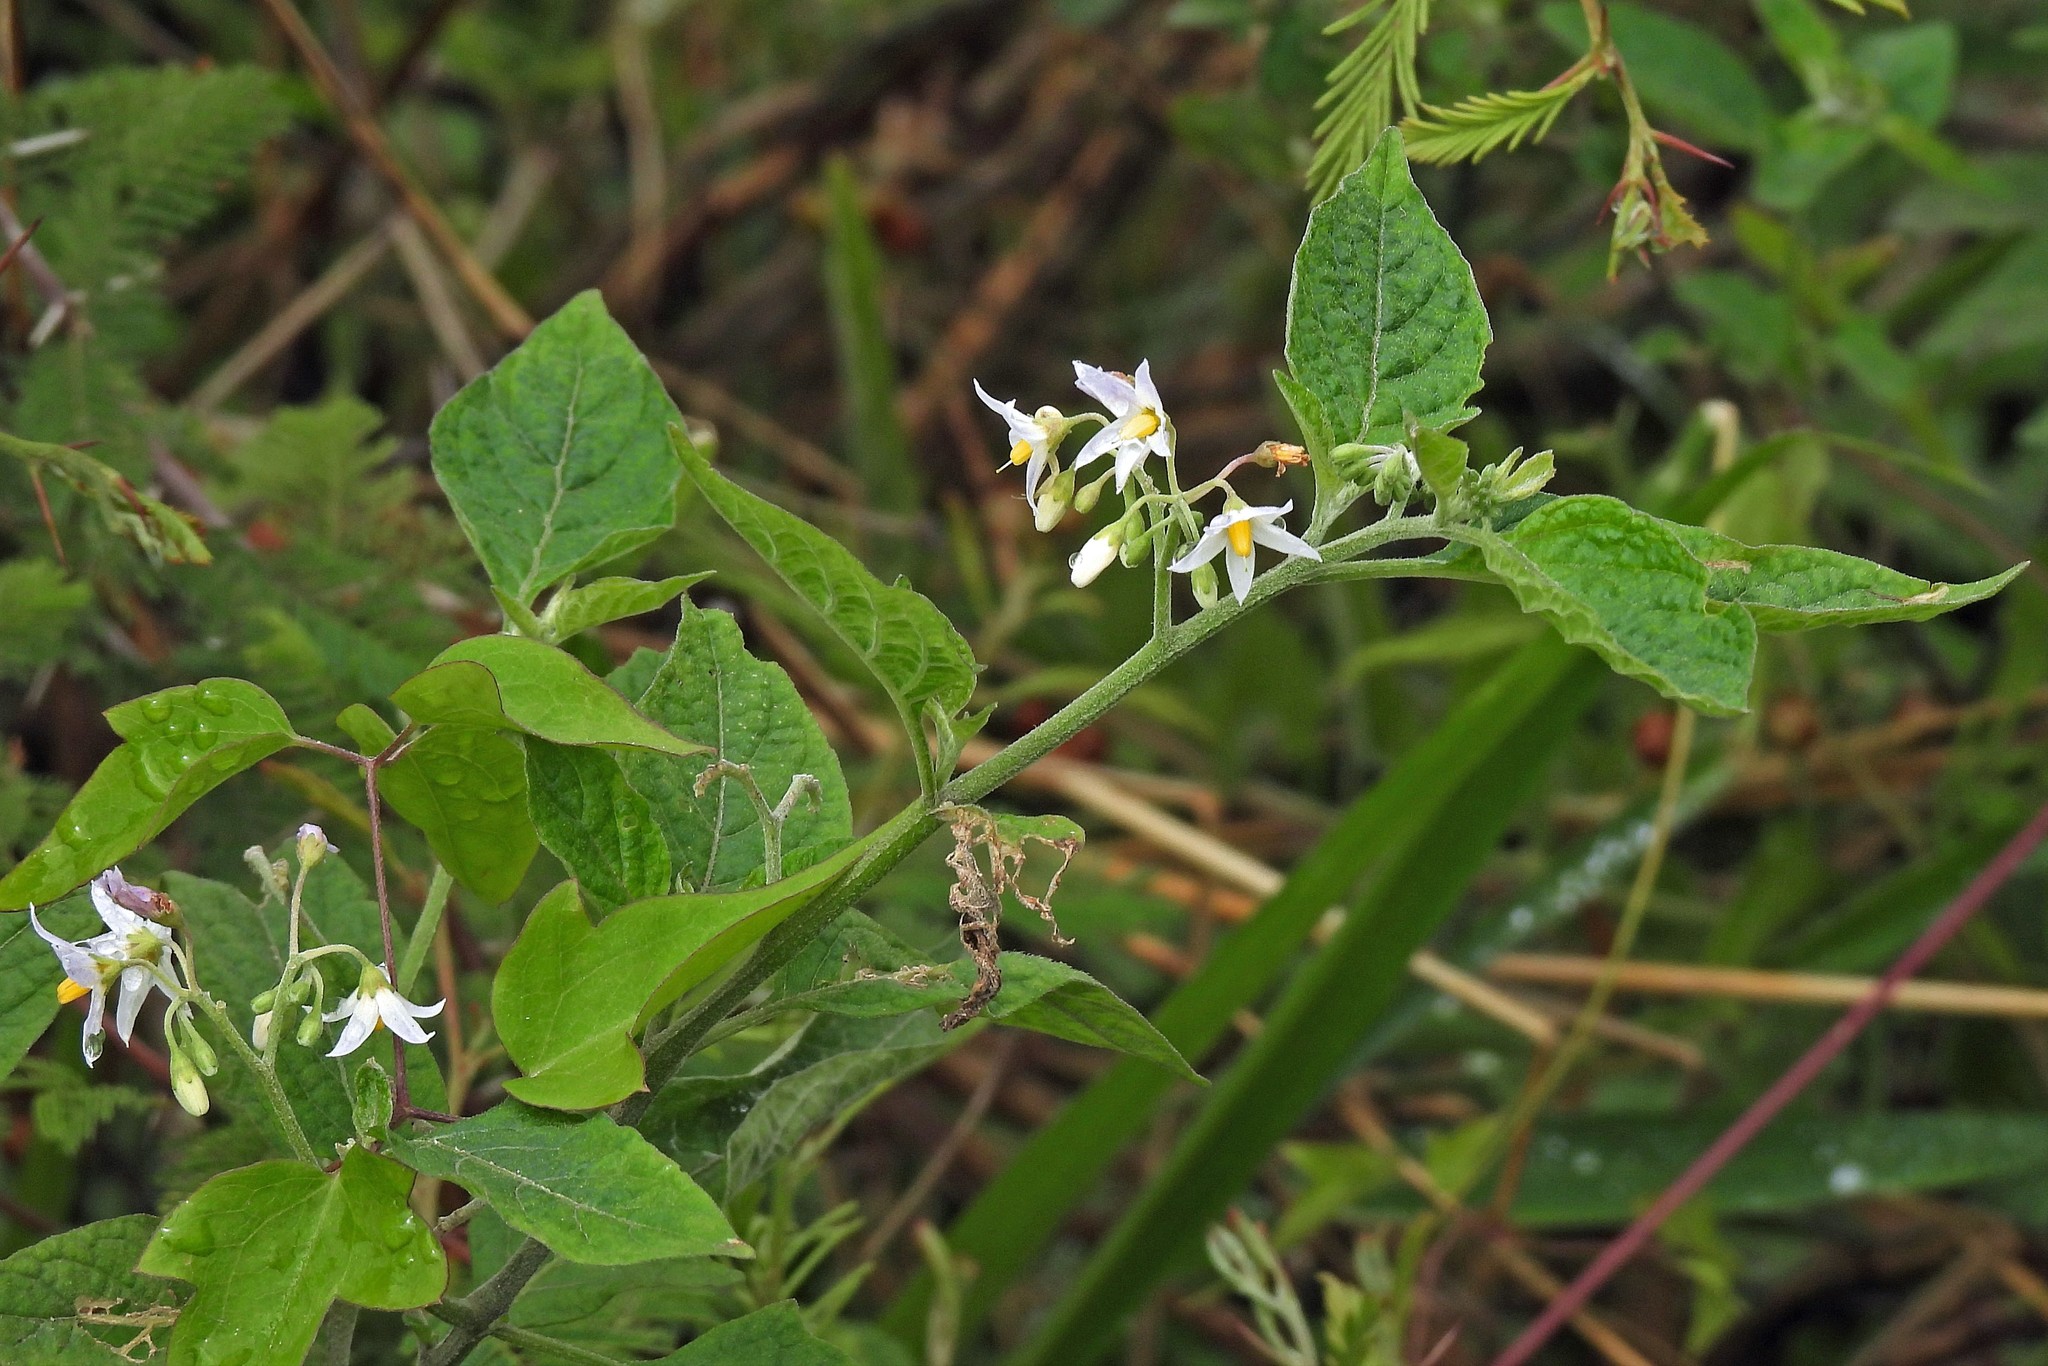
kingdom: Plantae
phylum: Tracheophyta
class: Magnoliopsida
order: Solanales
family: Solanaceae
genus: Solanum
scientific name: Solanum aloysiifolium
